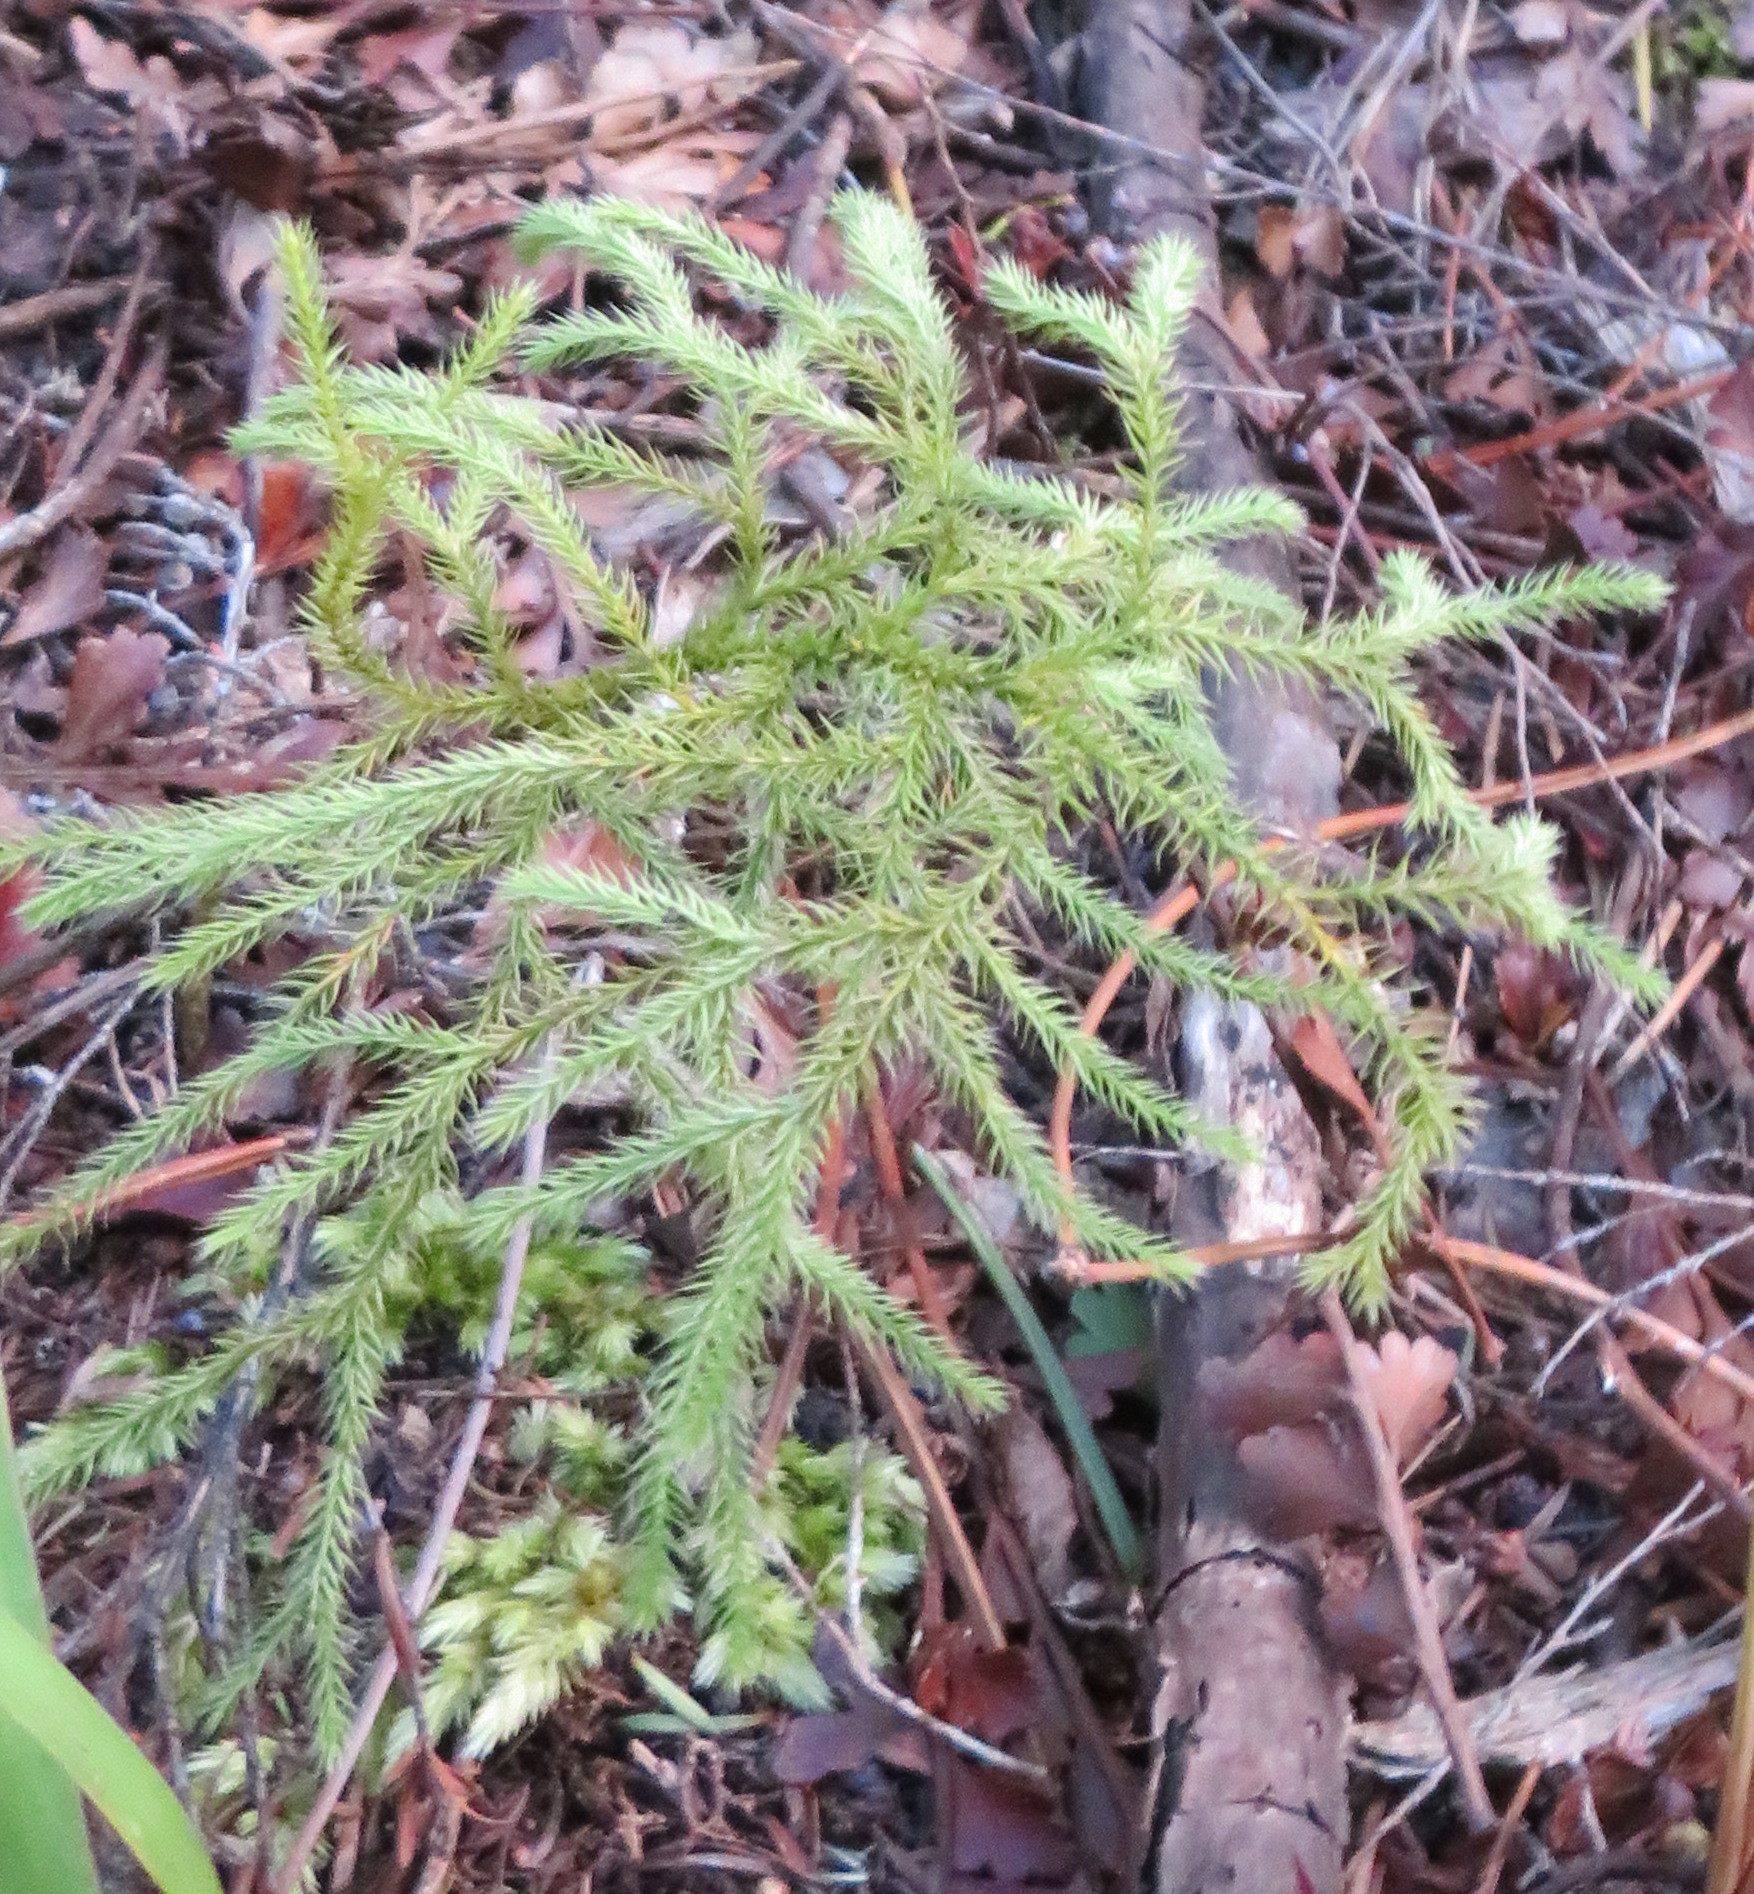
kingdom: Plantae
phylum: Tracheophyta
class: Lycopodiopsida
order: Lycopodiales
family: Lycopodiaceae
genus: Pseudolycopodium
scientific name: Pseudolycopodium densum
